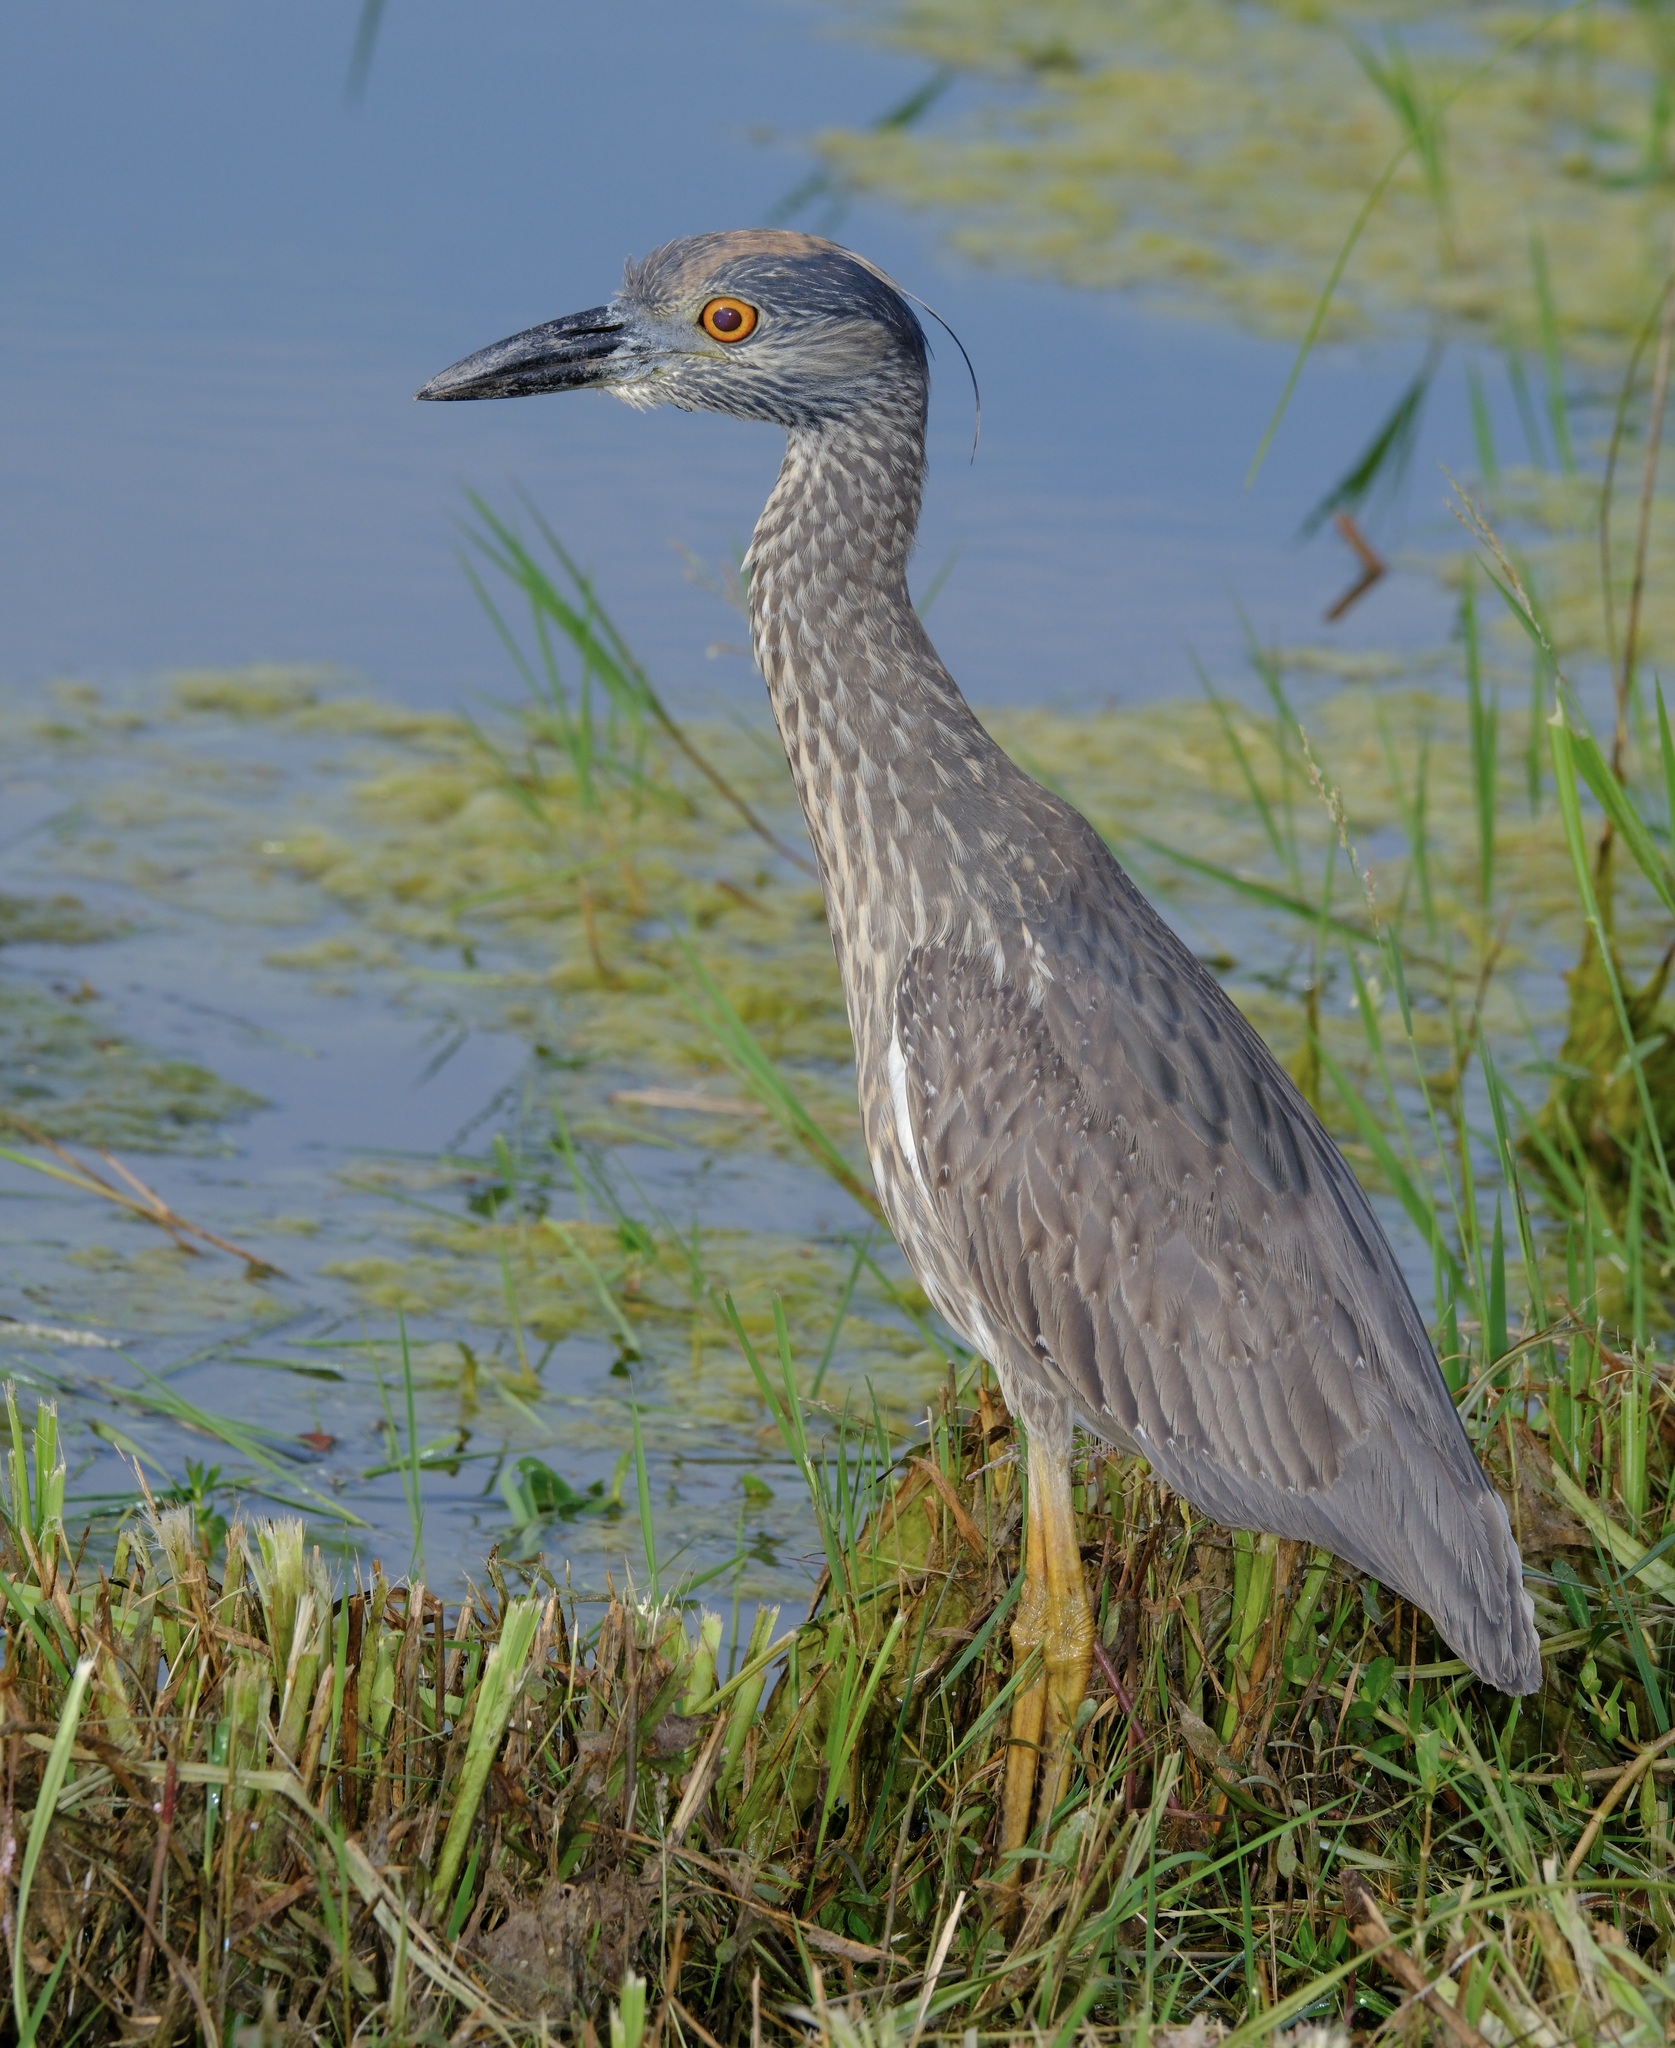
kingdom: Animalia
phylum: Chordata
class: Aves
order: Pelecaniformes
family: Ardeidae
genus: Nyctanassa
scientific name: Nyctanassa violacea
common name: Yellow-crowned night heron
